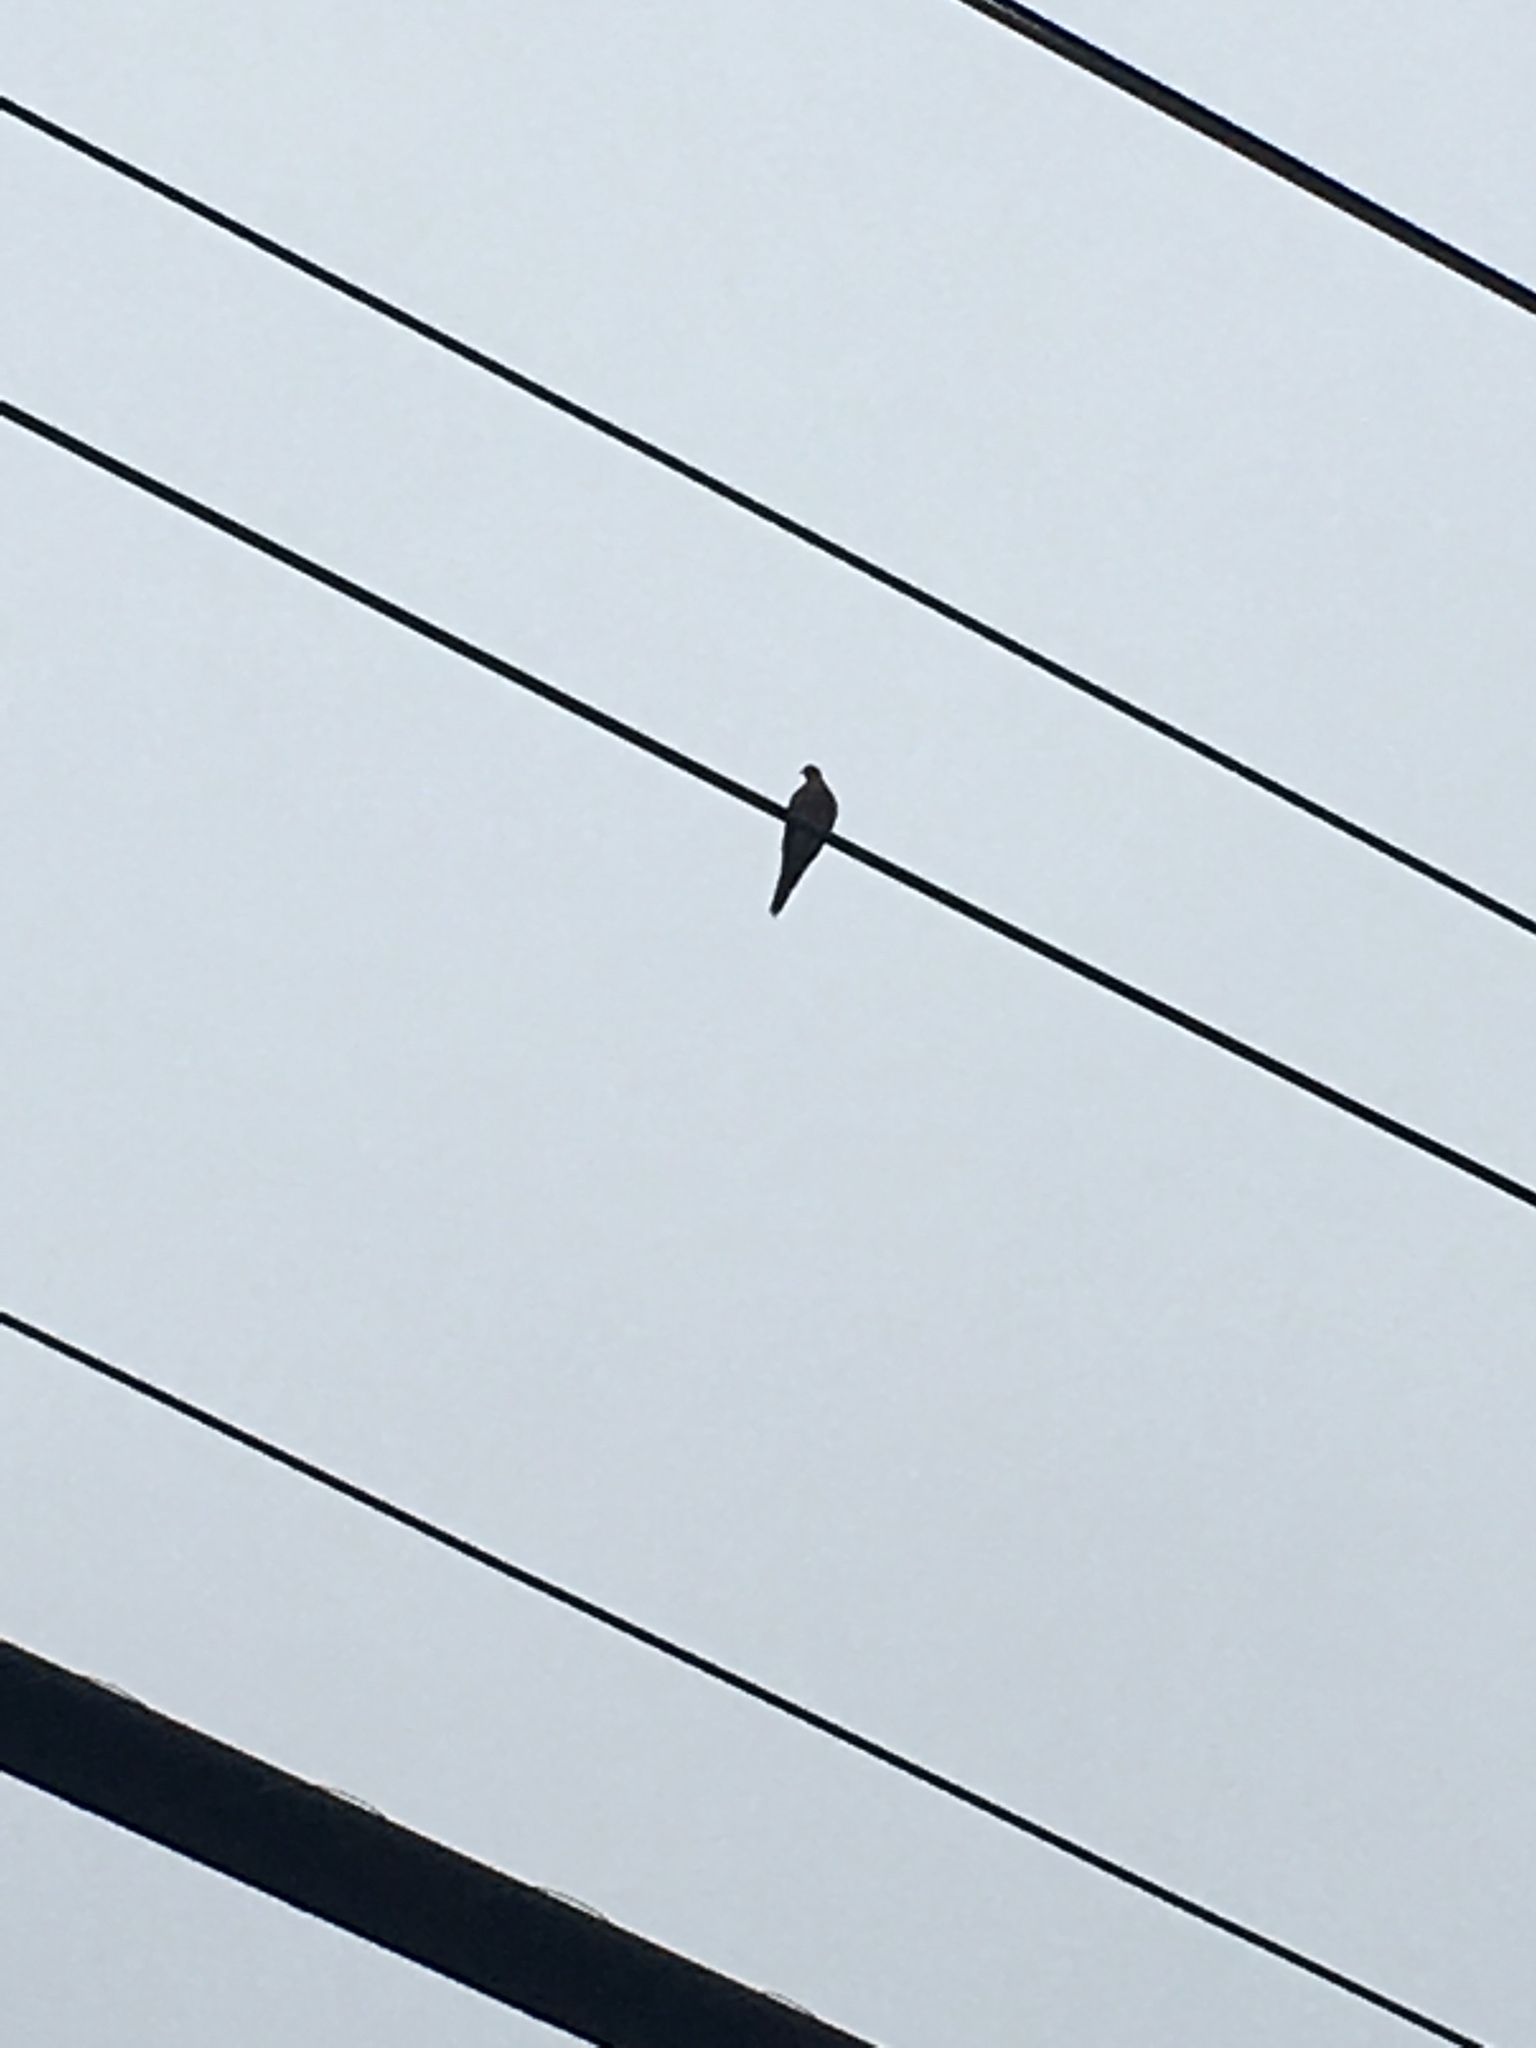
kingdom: Animalia
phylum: Chordata
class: Aves
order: Columbiformes
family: Columbidae
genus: Zenaida
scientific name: Zenaida macroura
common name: Mourning dove
